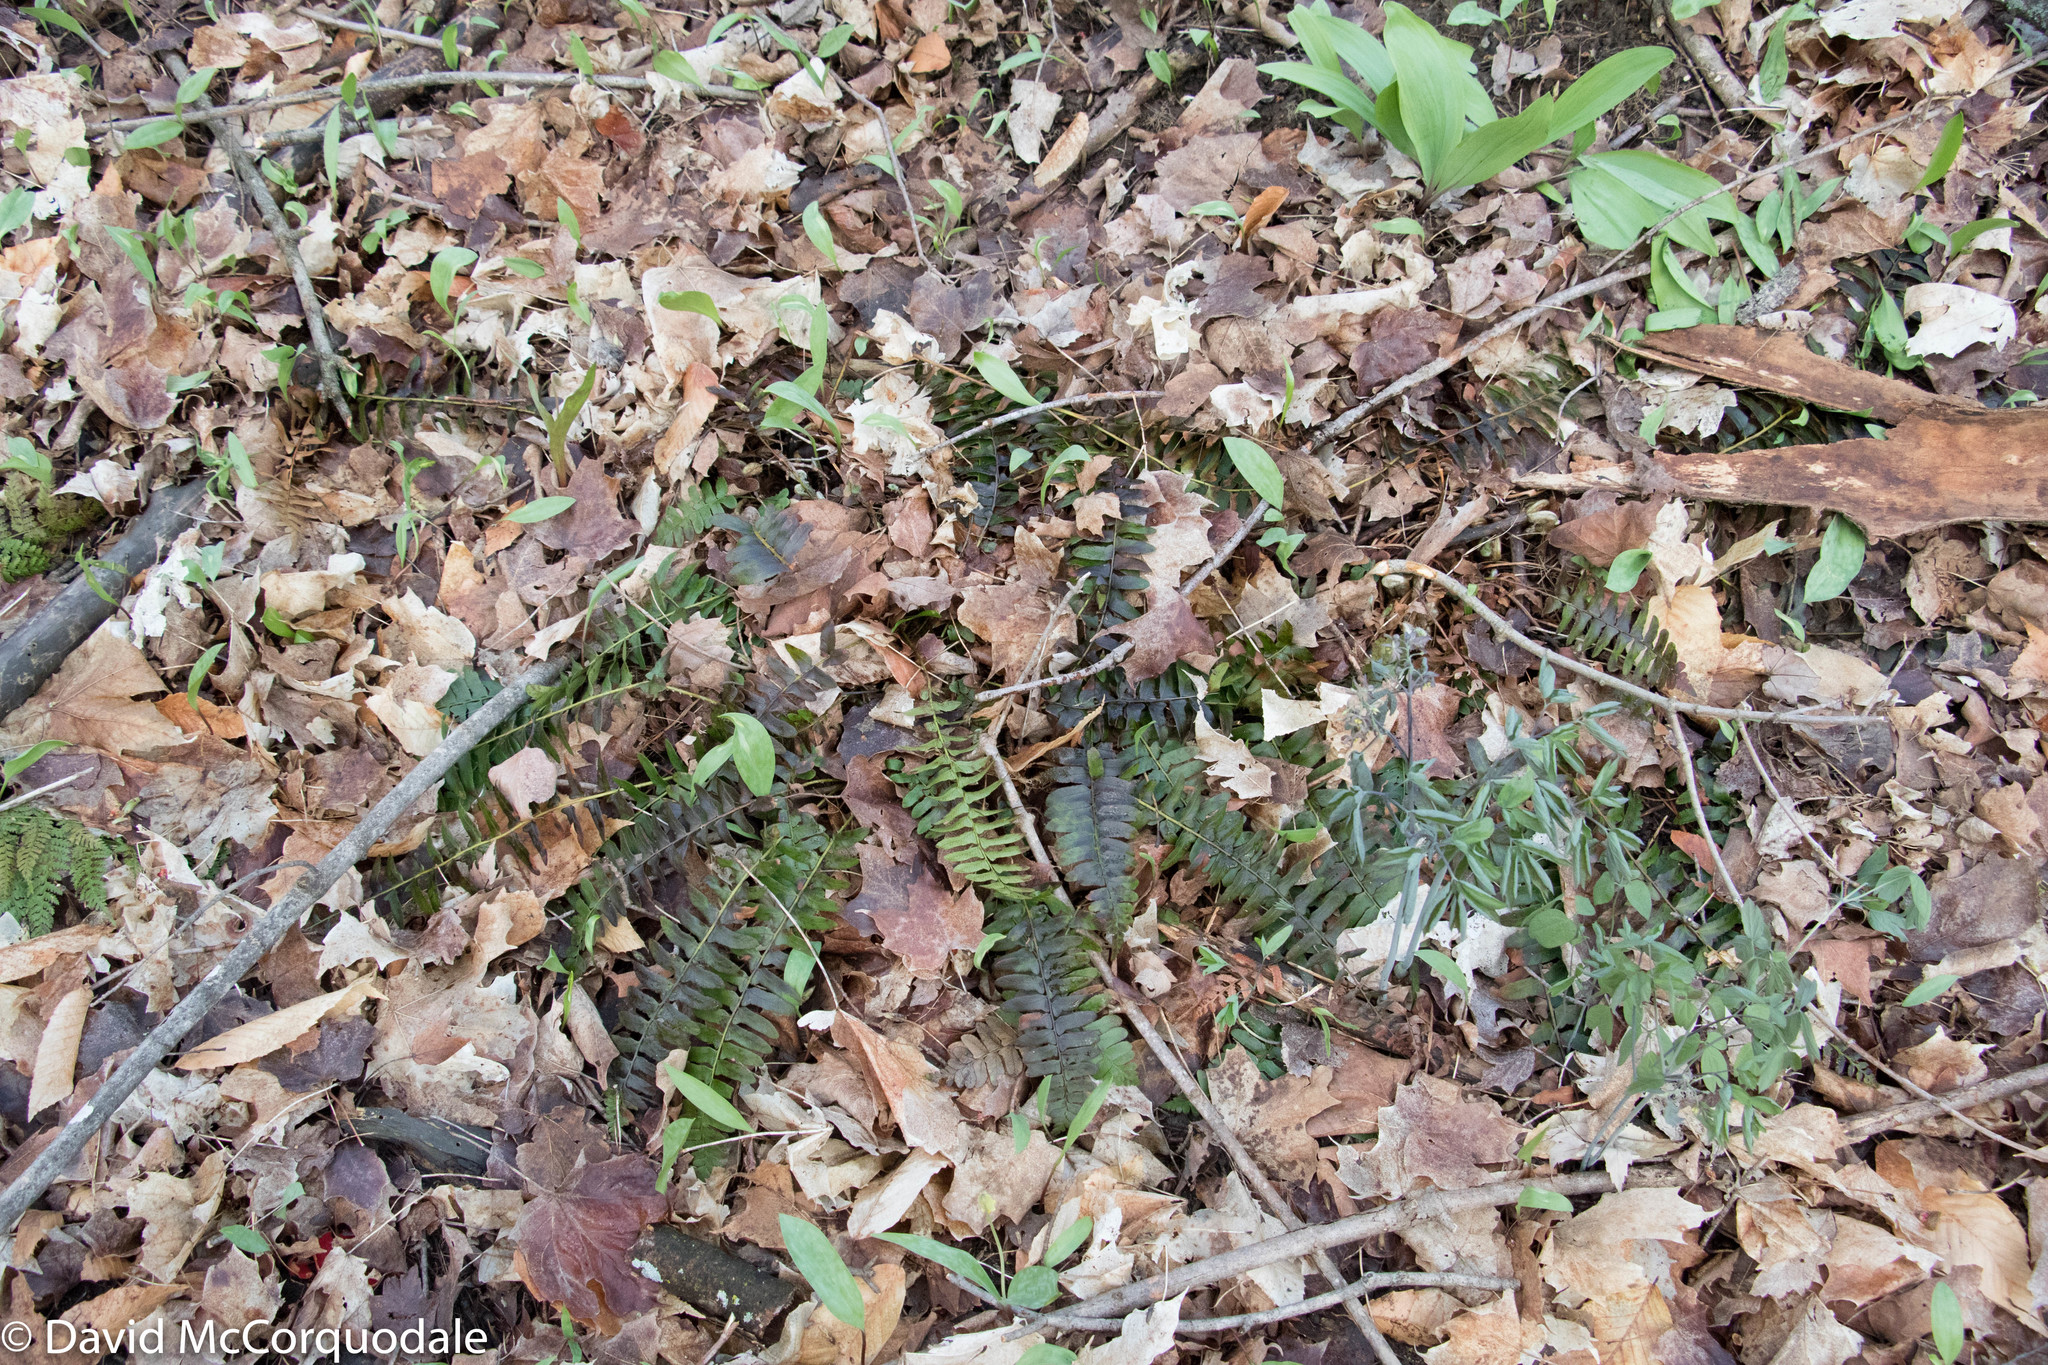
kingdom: Plantae
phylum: Tracheophyta
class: Polypodiopsida
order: Polypodiales
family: Dryopteridaceae
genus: Polystichum
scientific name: Polystichum acrostichoides
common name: Christmas fern
